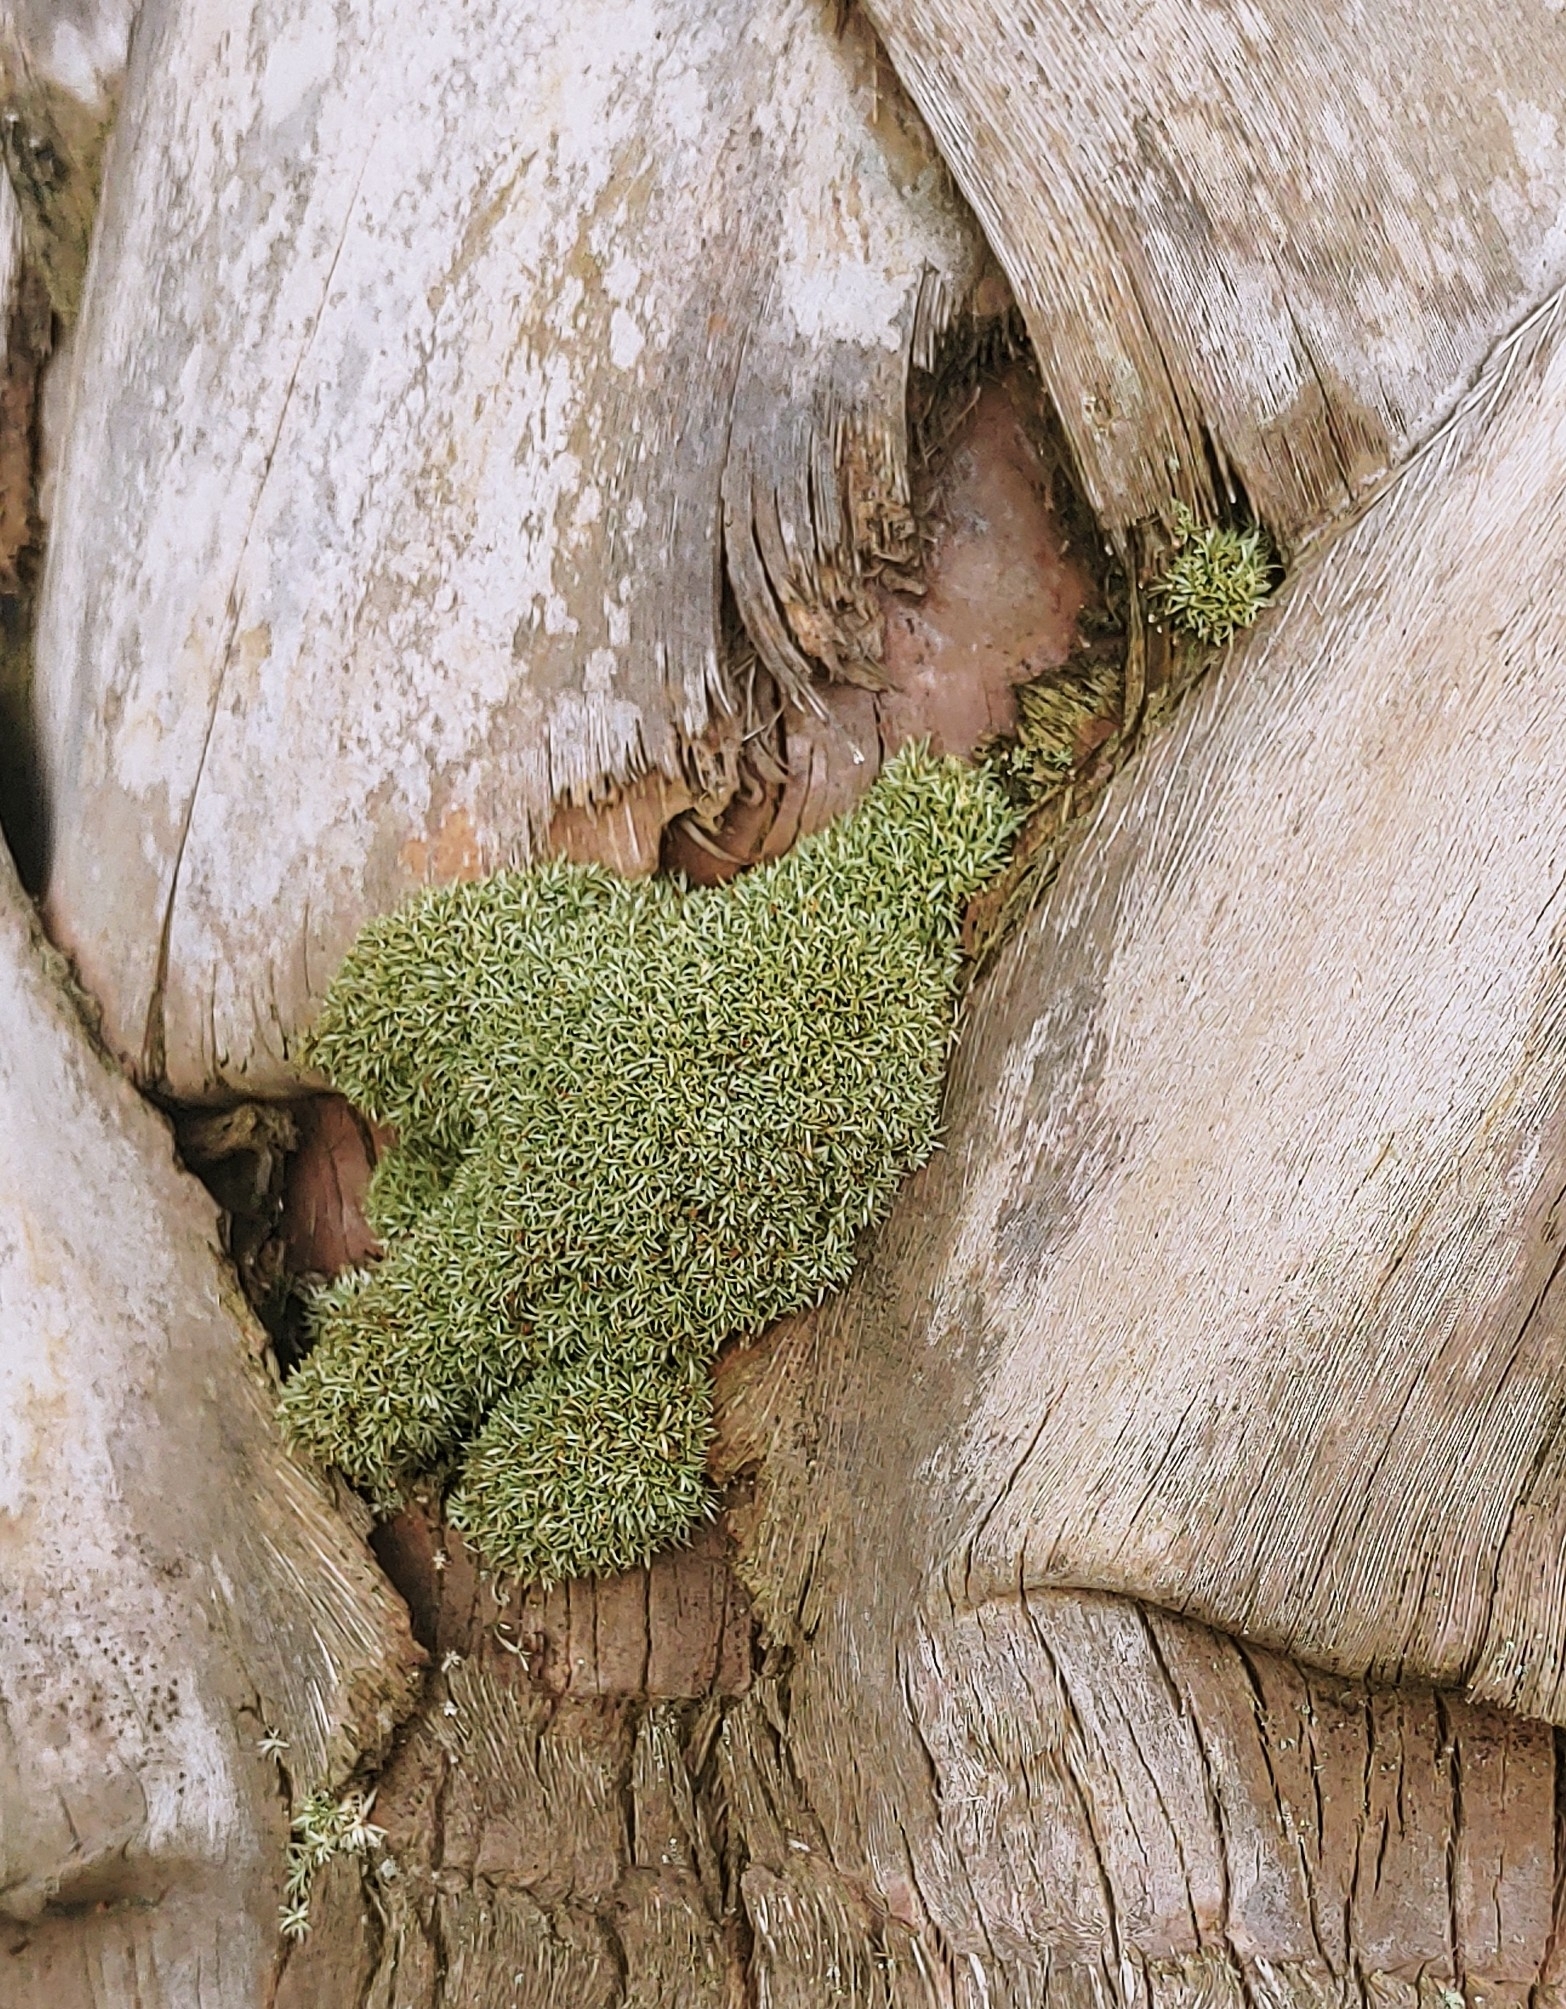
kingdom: Plantae
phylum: Bryophyta
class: Bryopsida
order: Dicranales
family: Octoblepharaceae
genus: Octoblepharum
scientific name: Octoblepharum albidum
